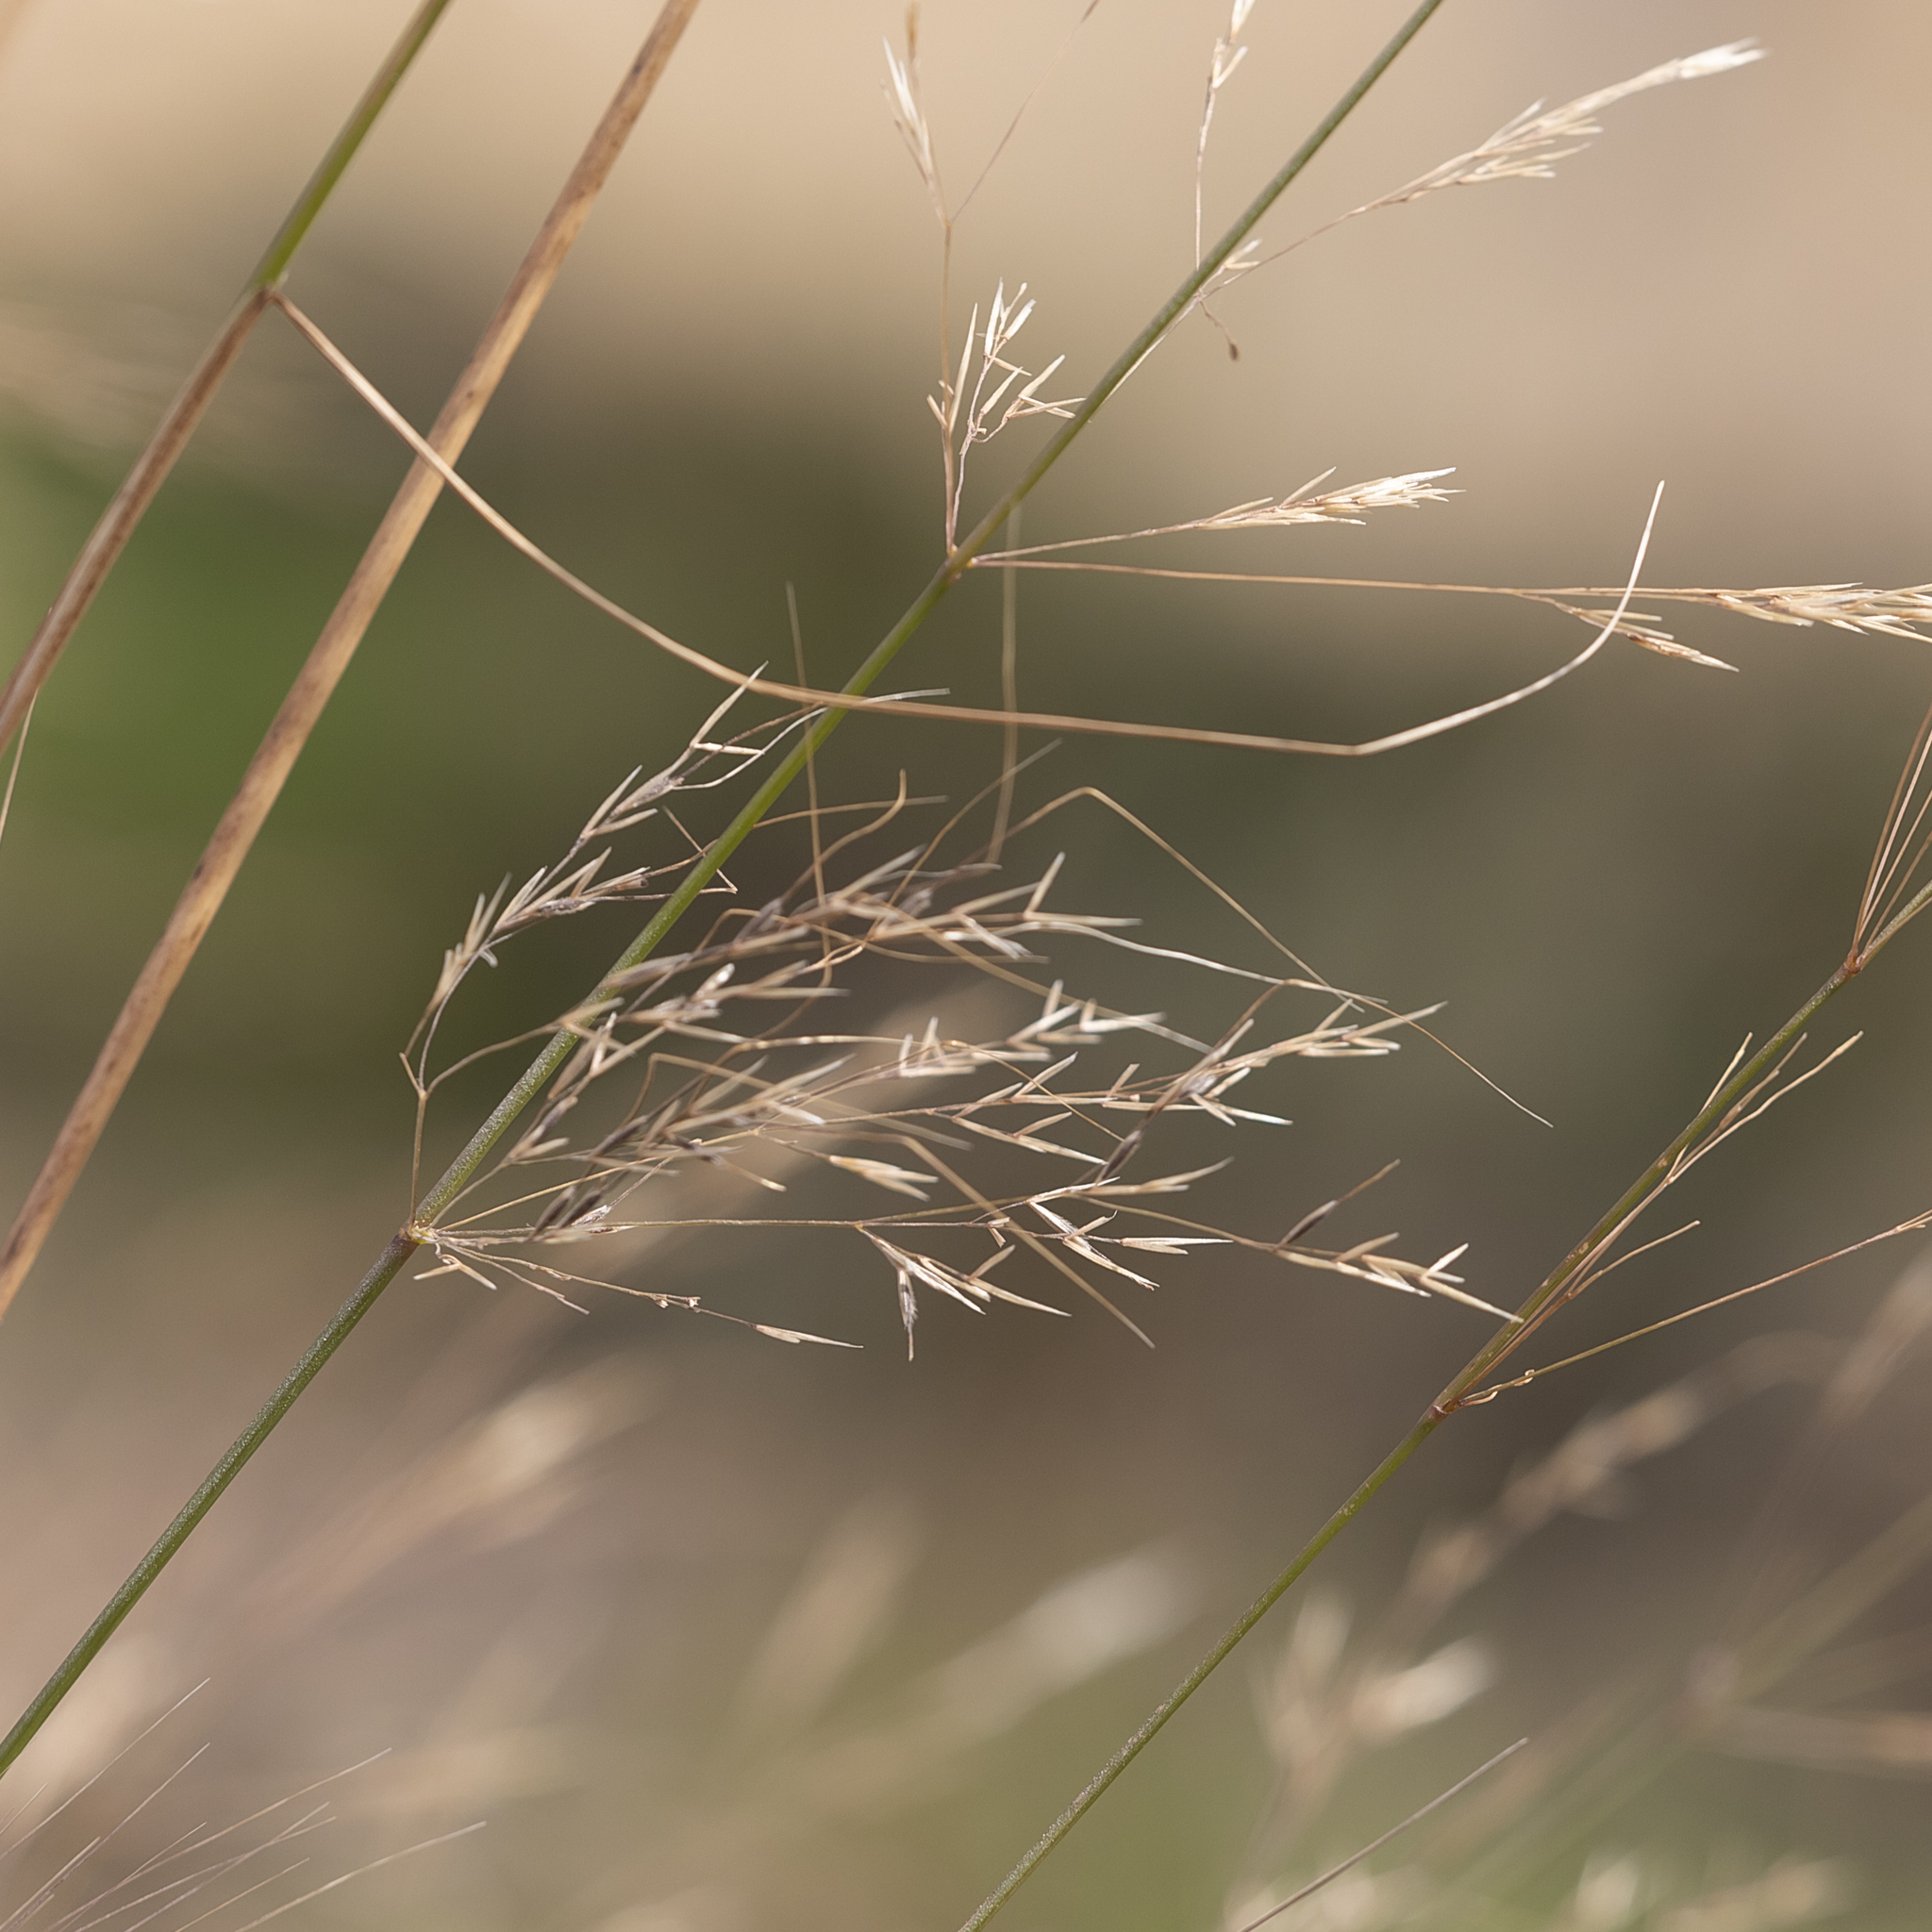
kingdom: Plantae
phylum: Tracheophyta
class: Liliopsida
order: Poales
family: Poaceae
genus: Austrostipa
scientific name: Austrostipa acrociliata
